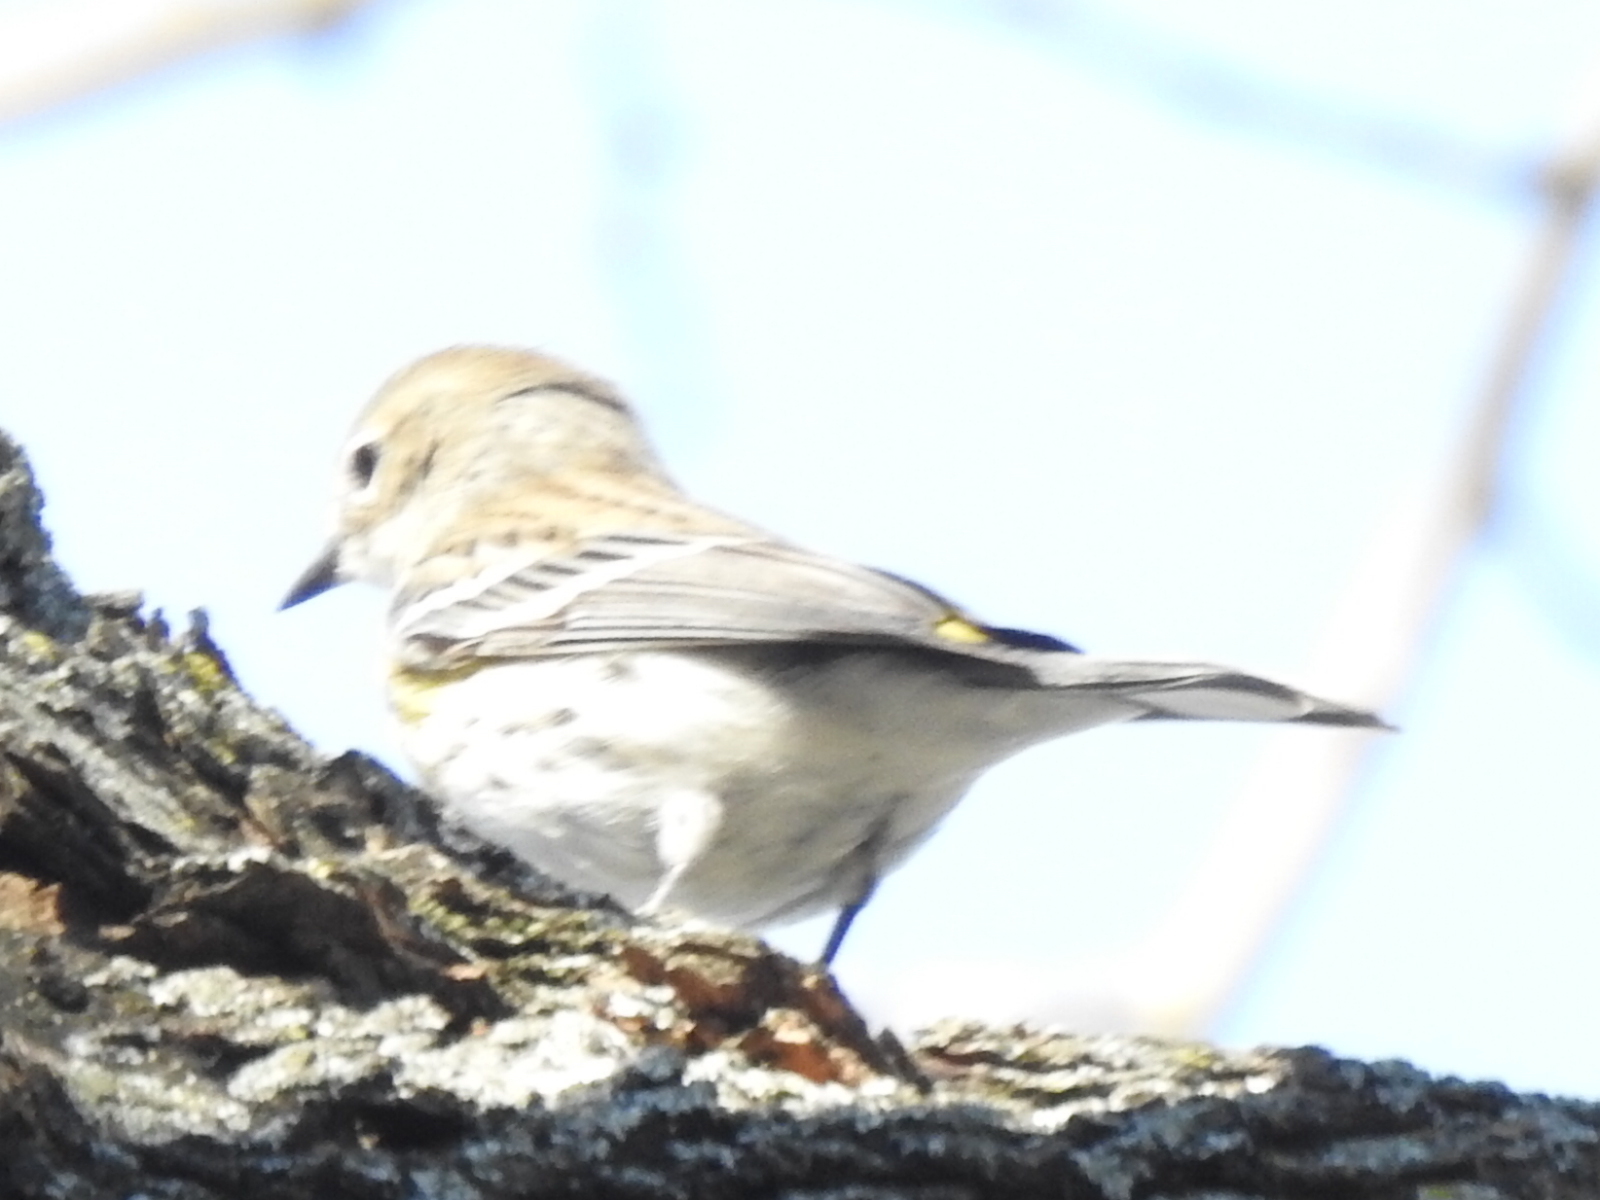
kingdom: Animalia
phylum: Chordata
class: Aves
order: Passeriformes
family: Parulidae
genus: Setophaga
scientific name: Setophaga coronata
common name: Myrtle warbler
